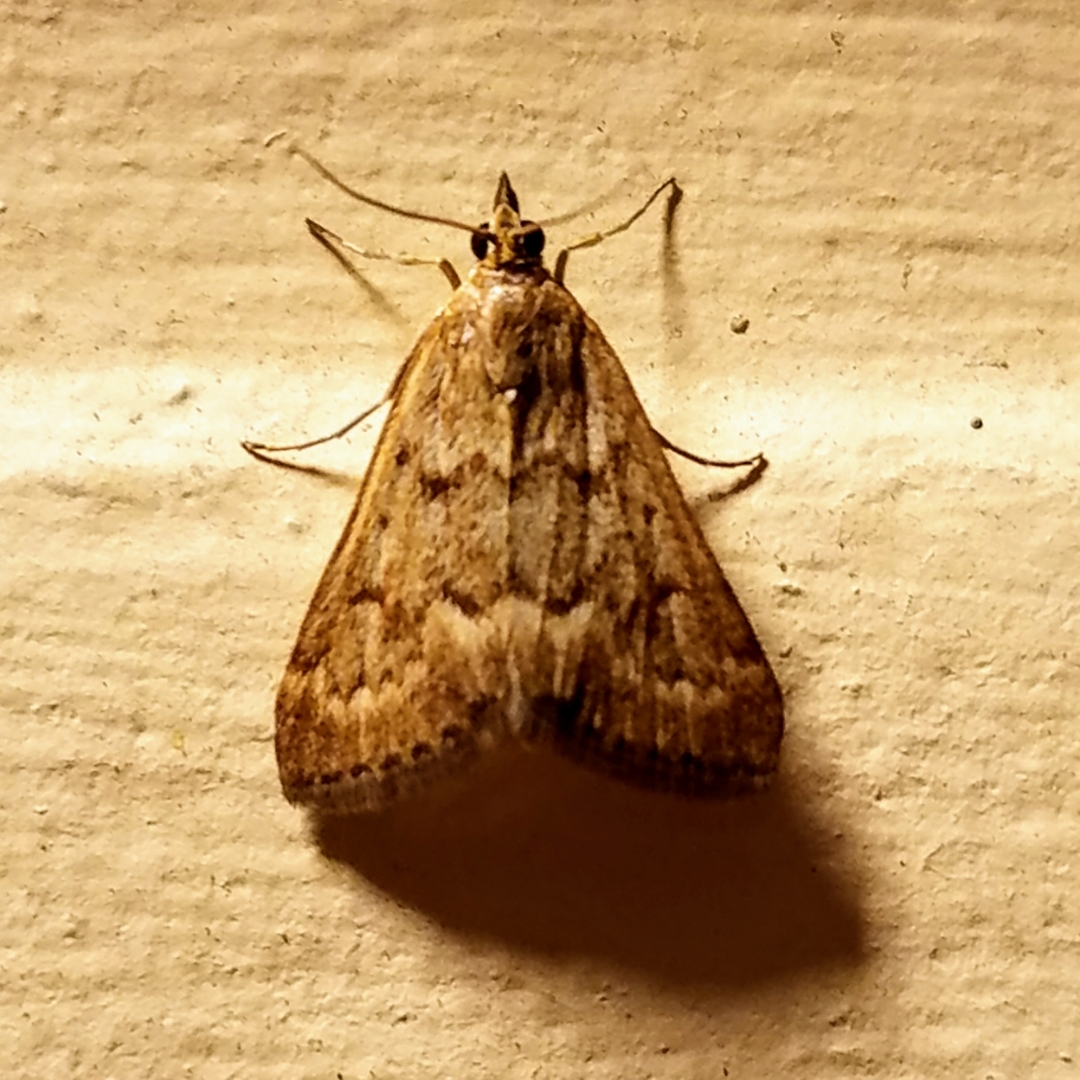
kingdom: Animalia
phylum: Arthropoda
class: Insecta
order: Lepidoptera
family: Crambidae
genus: Achyra
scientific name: Achyra rantalis
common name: Garden webworm
